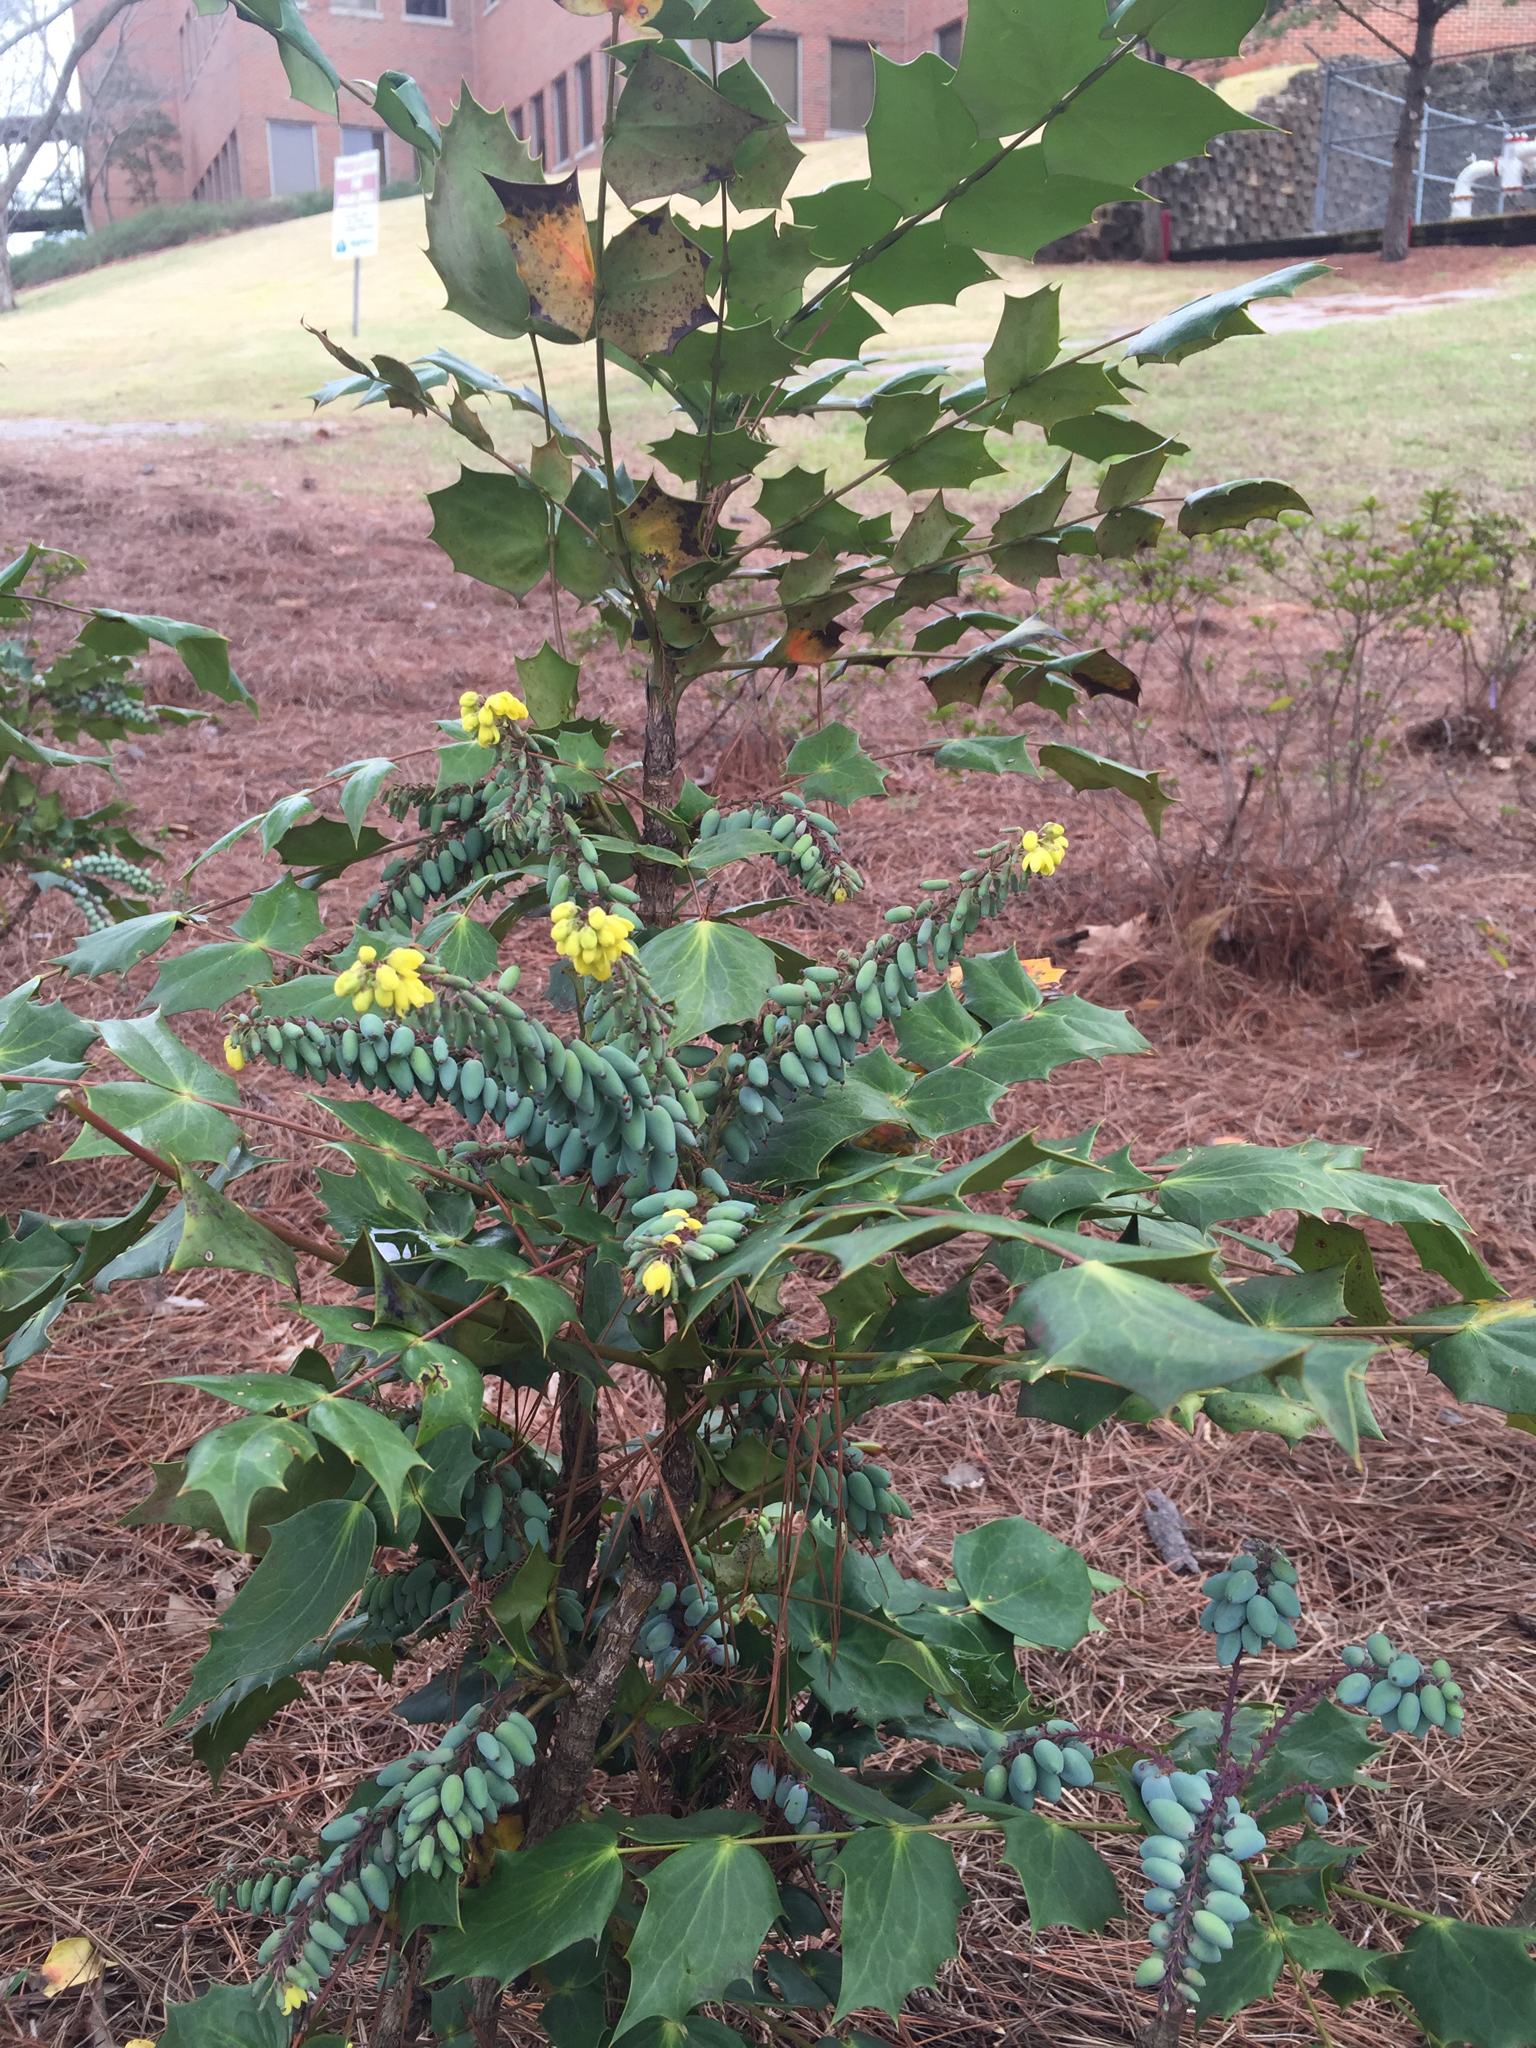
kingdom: Plantae
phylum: Tracheophyta
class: Magnoliopsida
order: Ranunculales
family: Berberidaceae
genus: Mahonia
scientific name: Mahonia bealei
